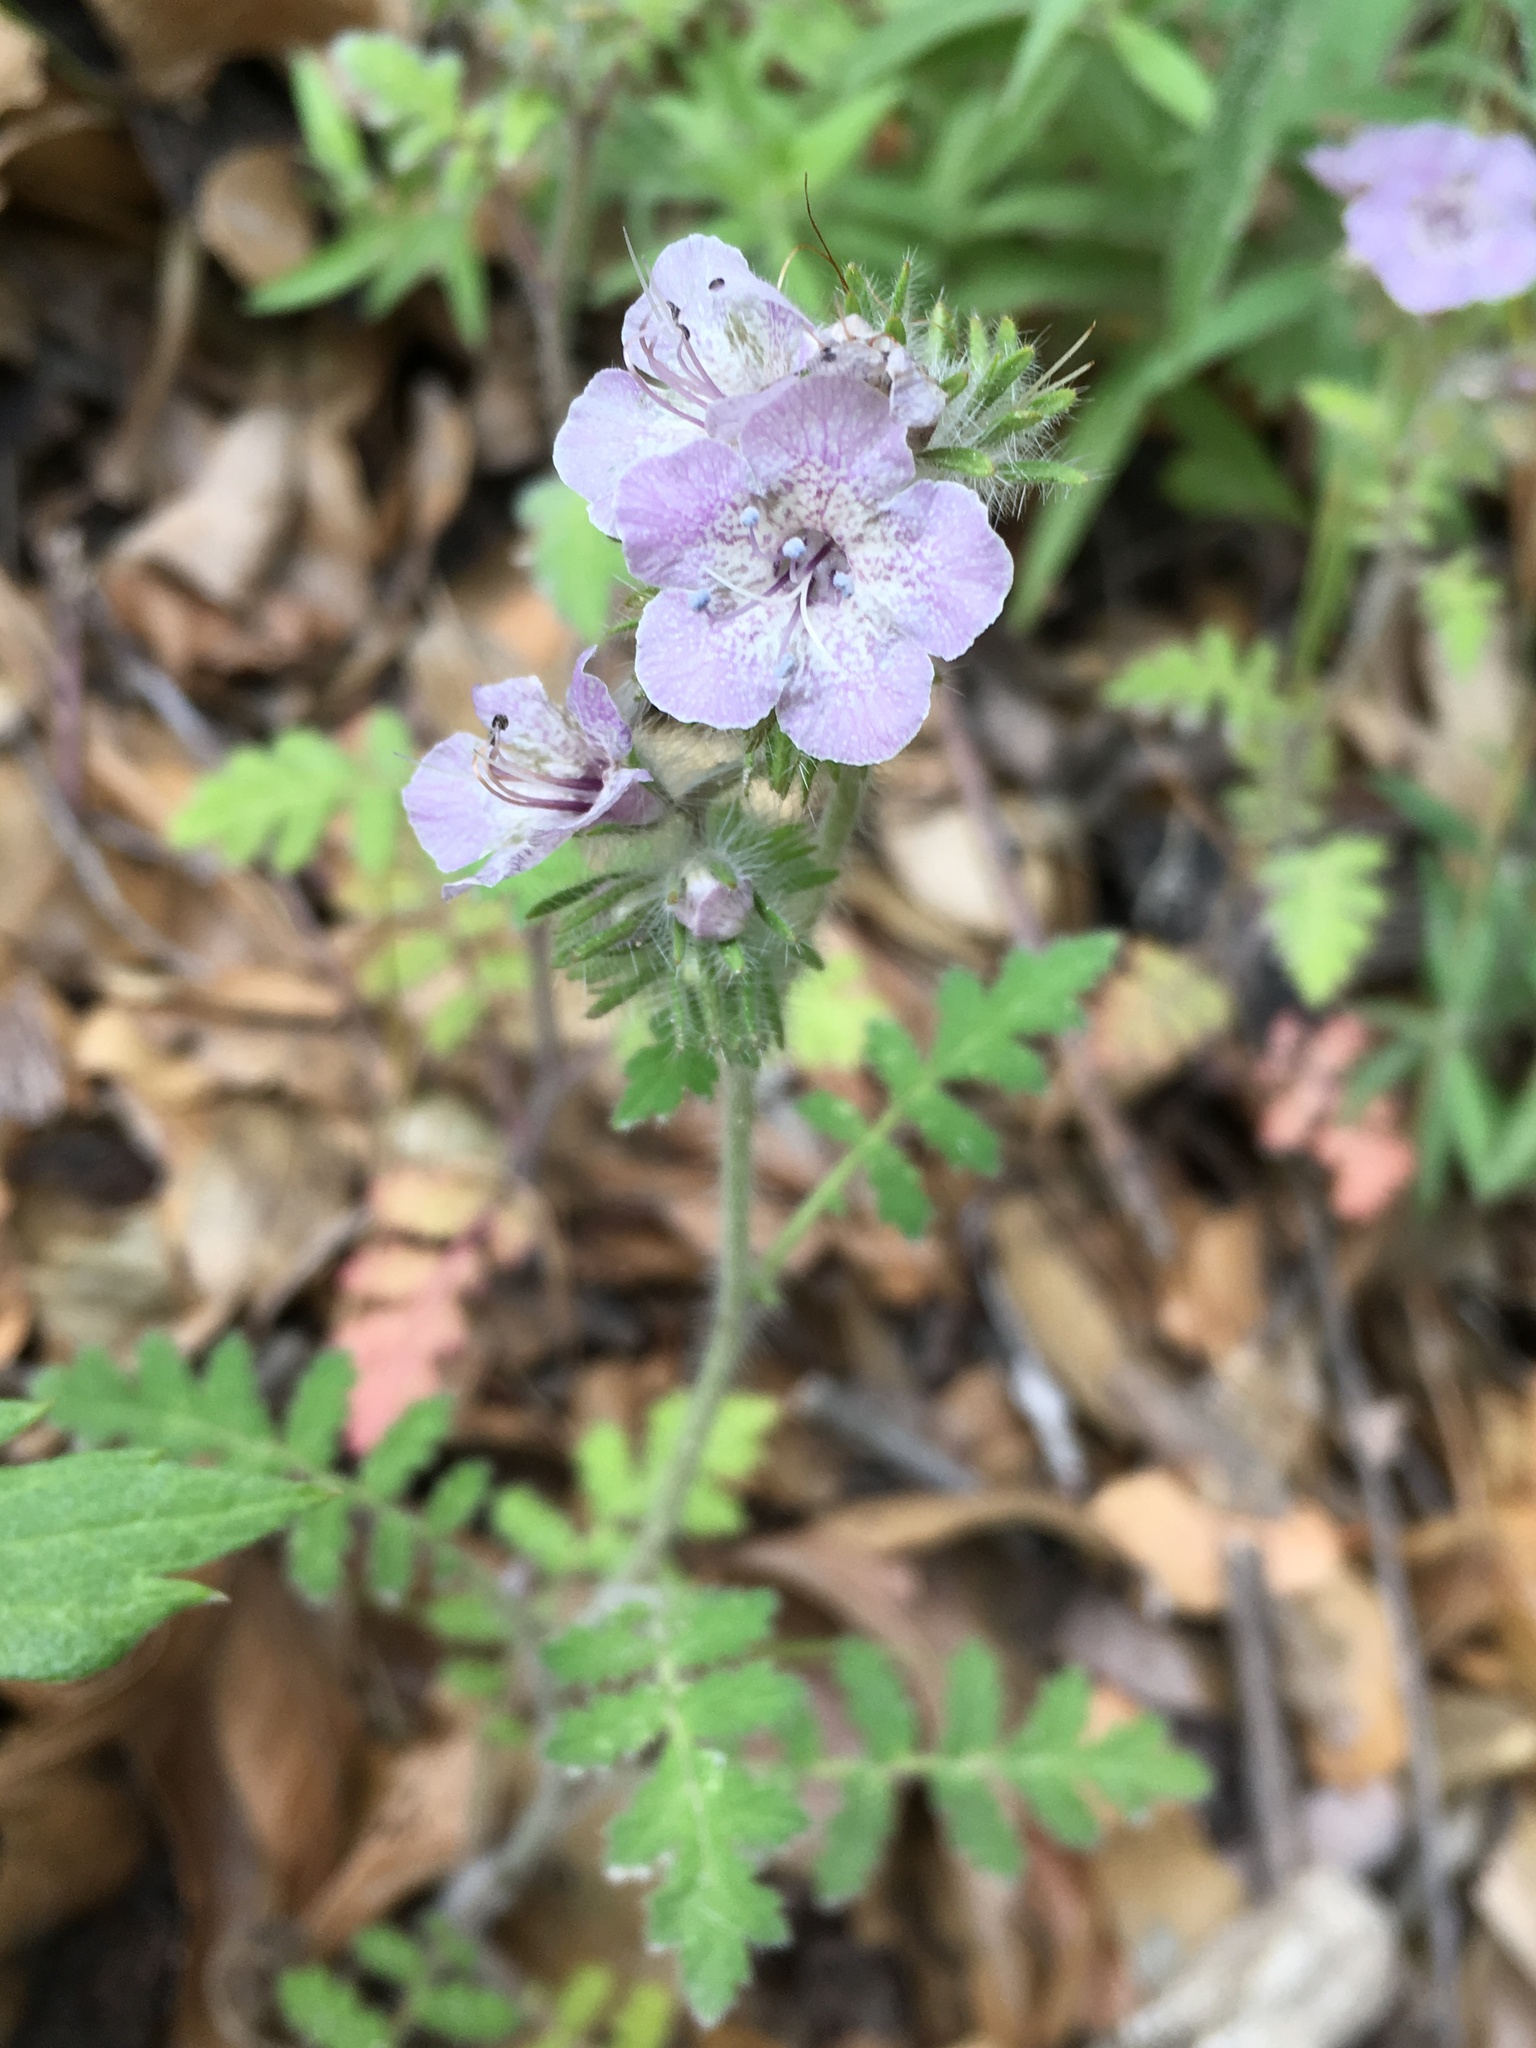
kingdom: Plantae
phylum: Tracheophyta
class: Magnoliopsida
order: Boraginales
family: Hydrophyllaceae
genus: Phacelia
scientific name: Phacelia cicutaria
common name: Caterpillar phacelia
